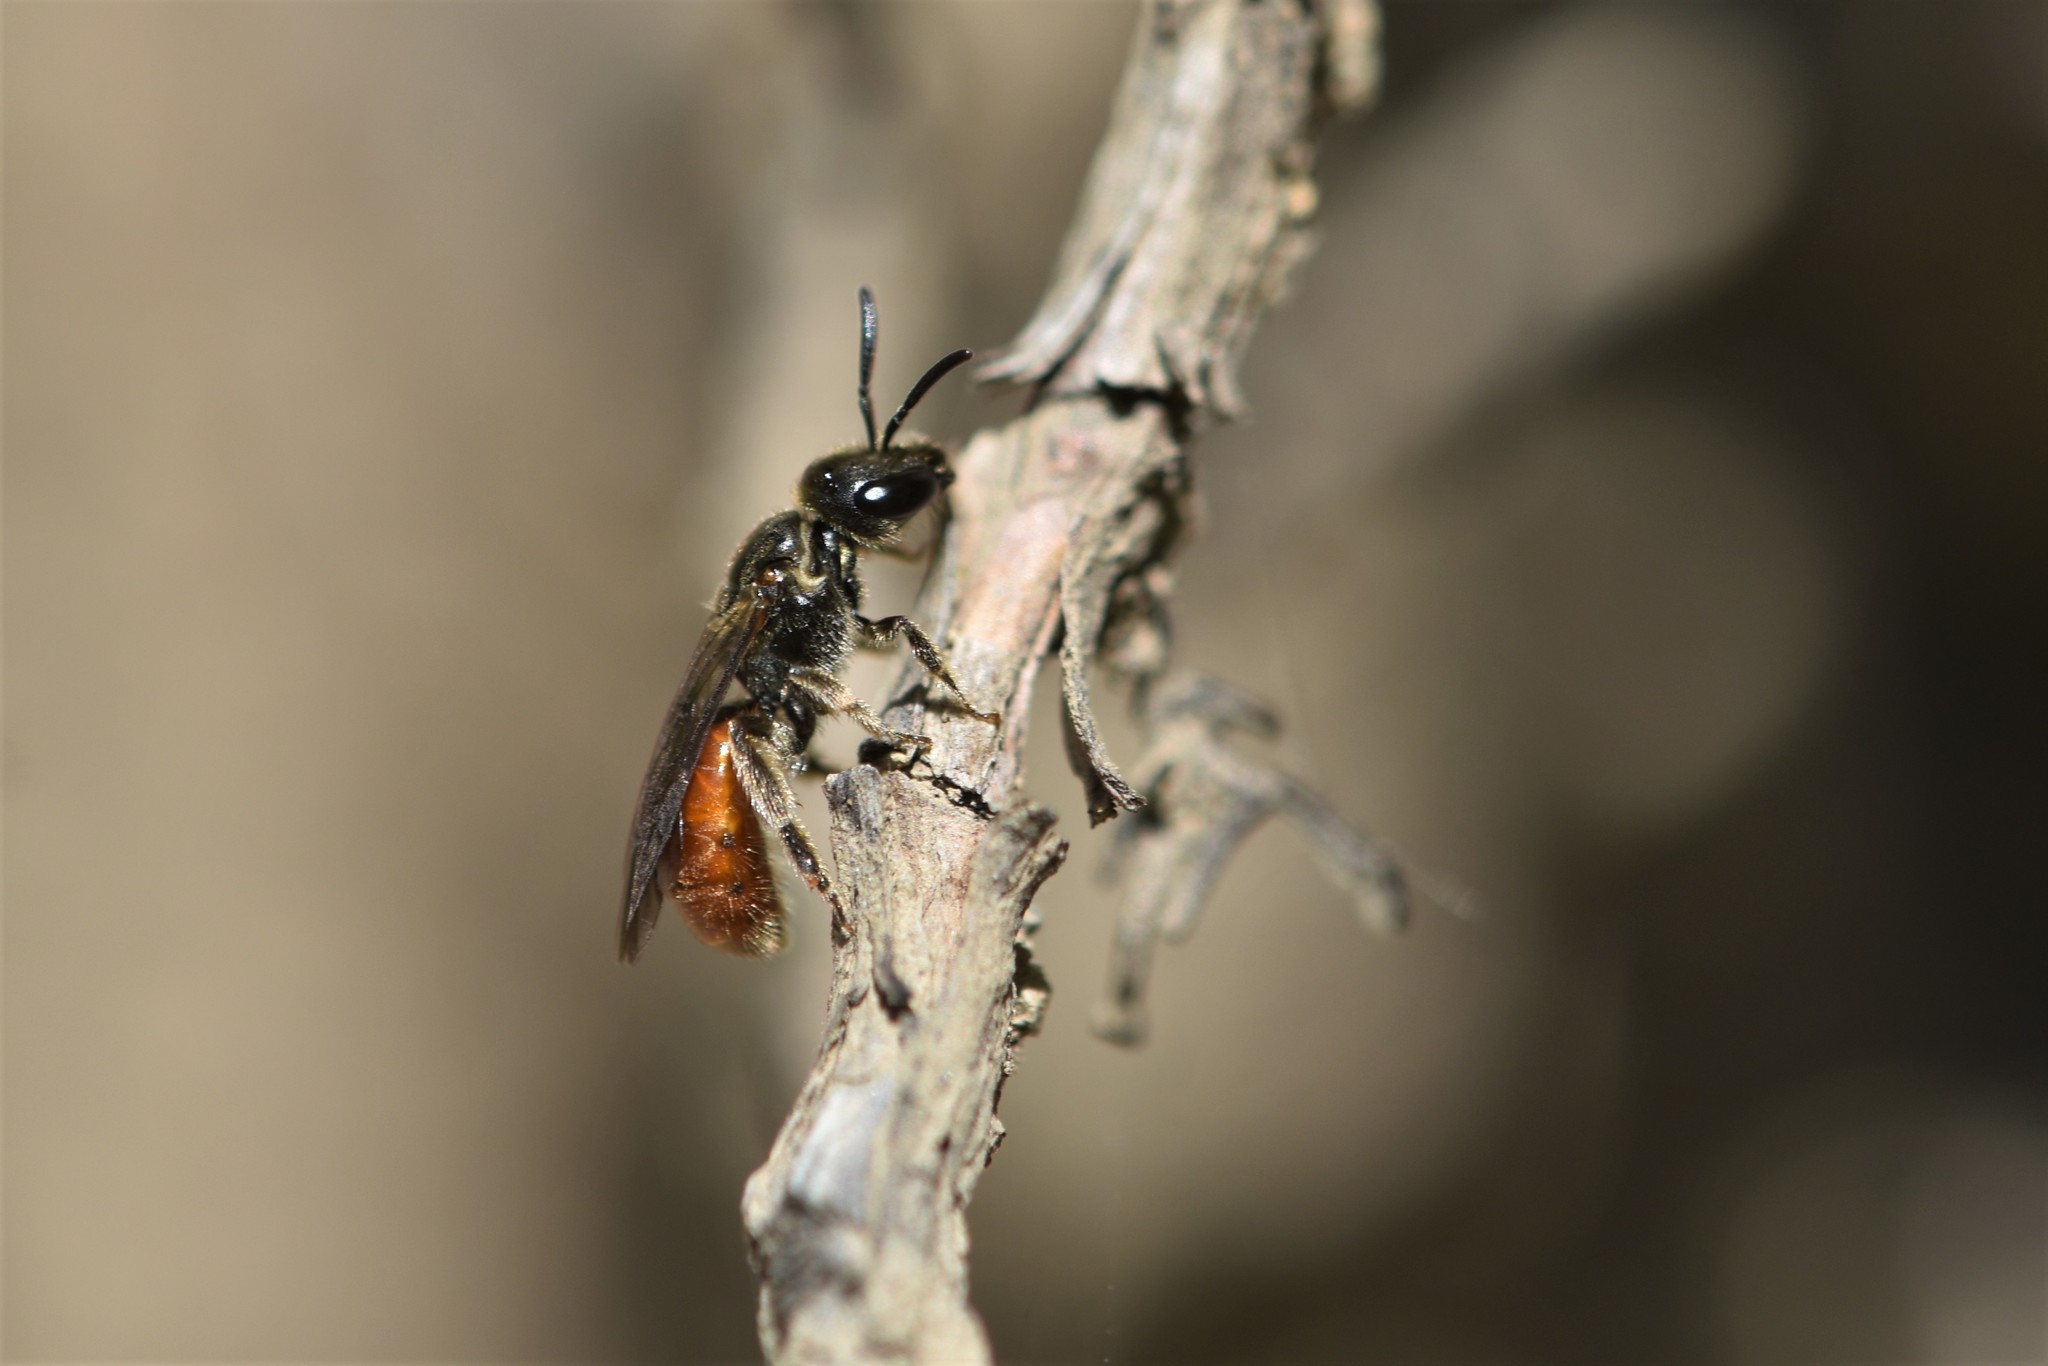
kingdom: Animalia
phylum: Arthropoda
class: Insecta
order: Hymenoptera
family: Halictidae
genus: Lasioglossum
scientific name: Lasioglossum ovaliceps
